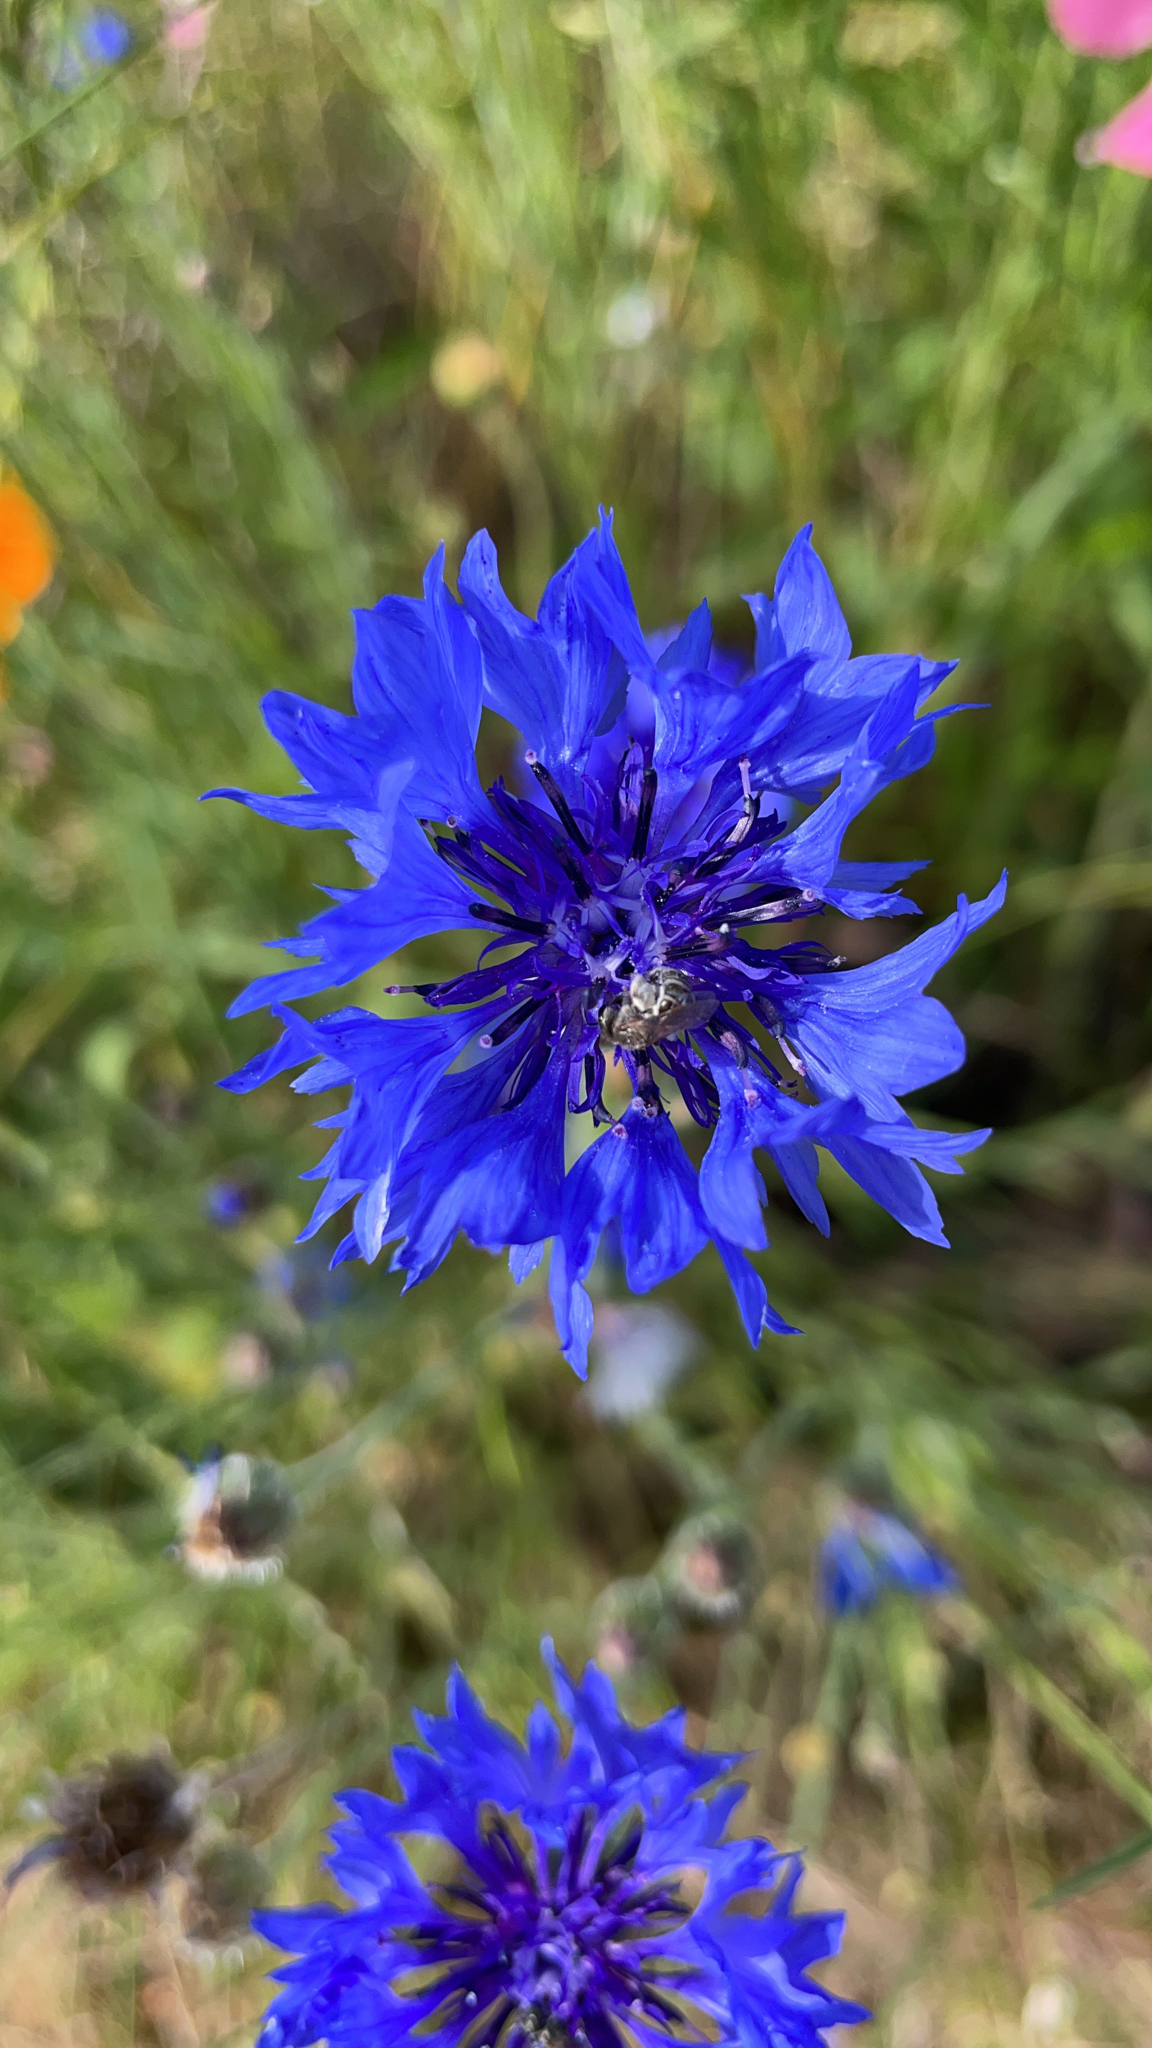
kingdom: Plantae
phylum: Tracheophyta
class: Magnoliopsida
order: Asterales
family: Asteraceae
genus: Centaurea
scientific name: Centaurea cyanus
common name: Cornflower
